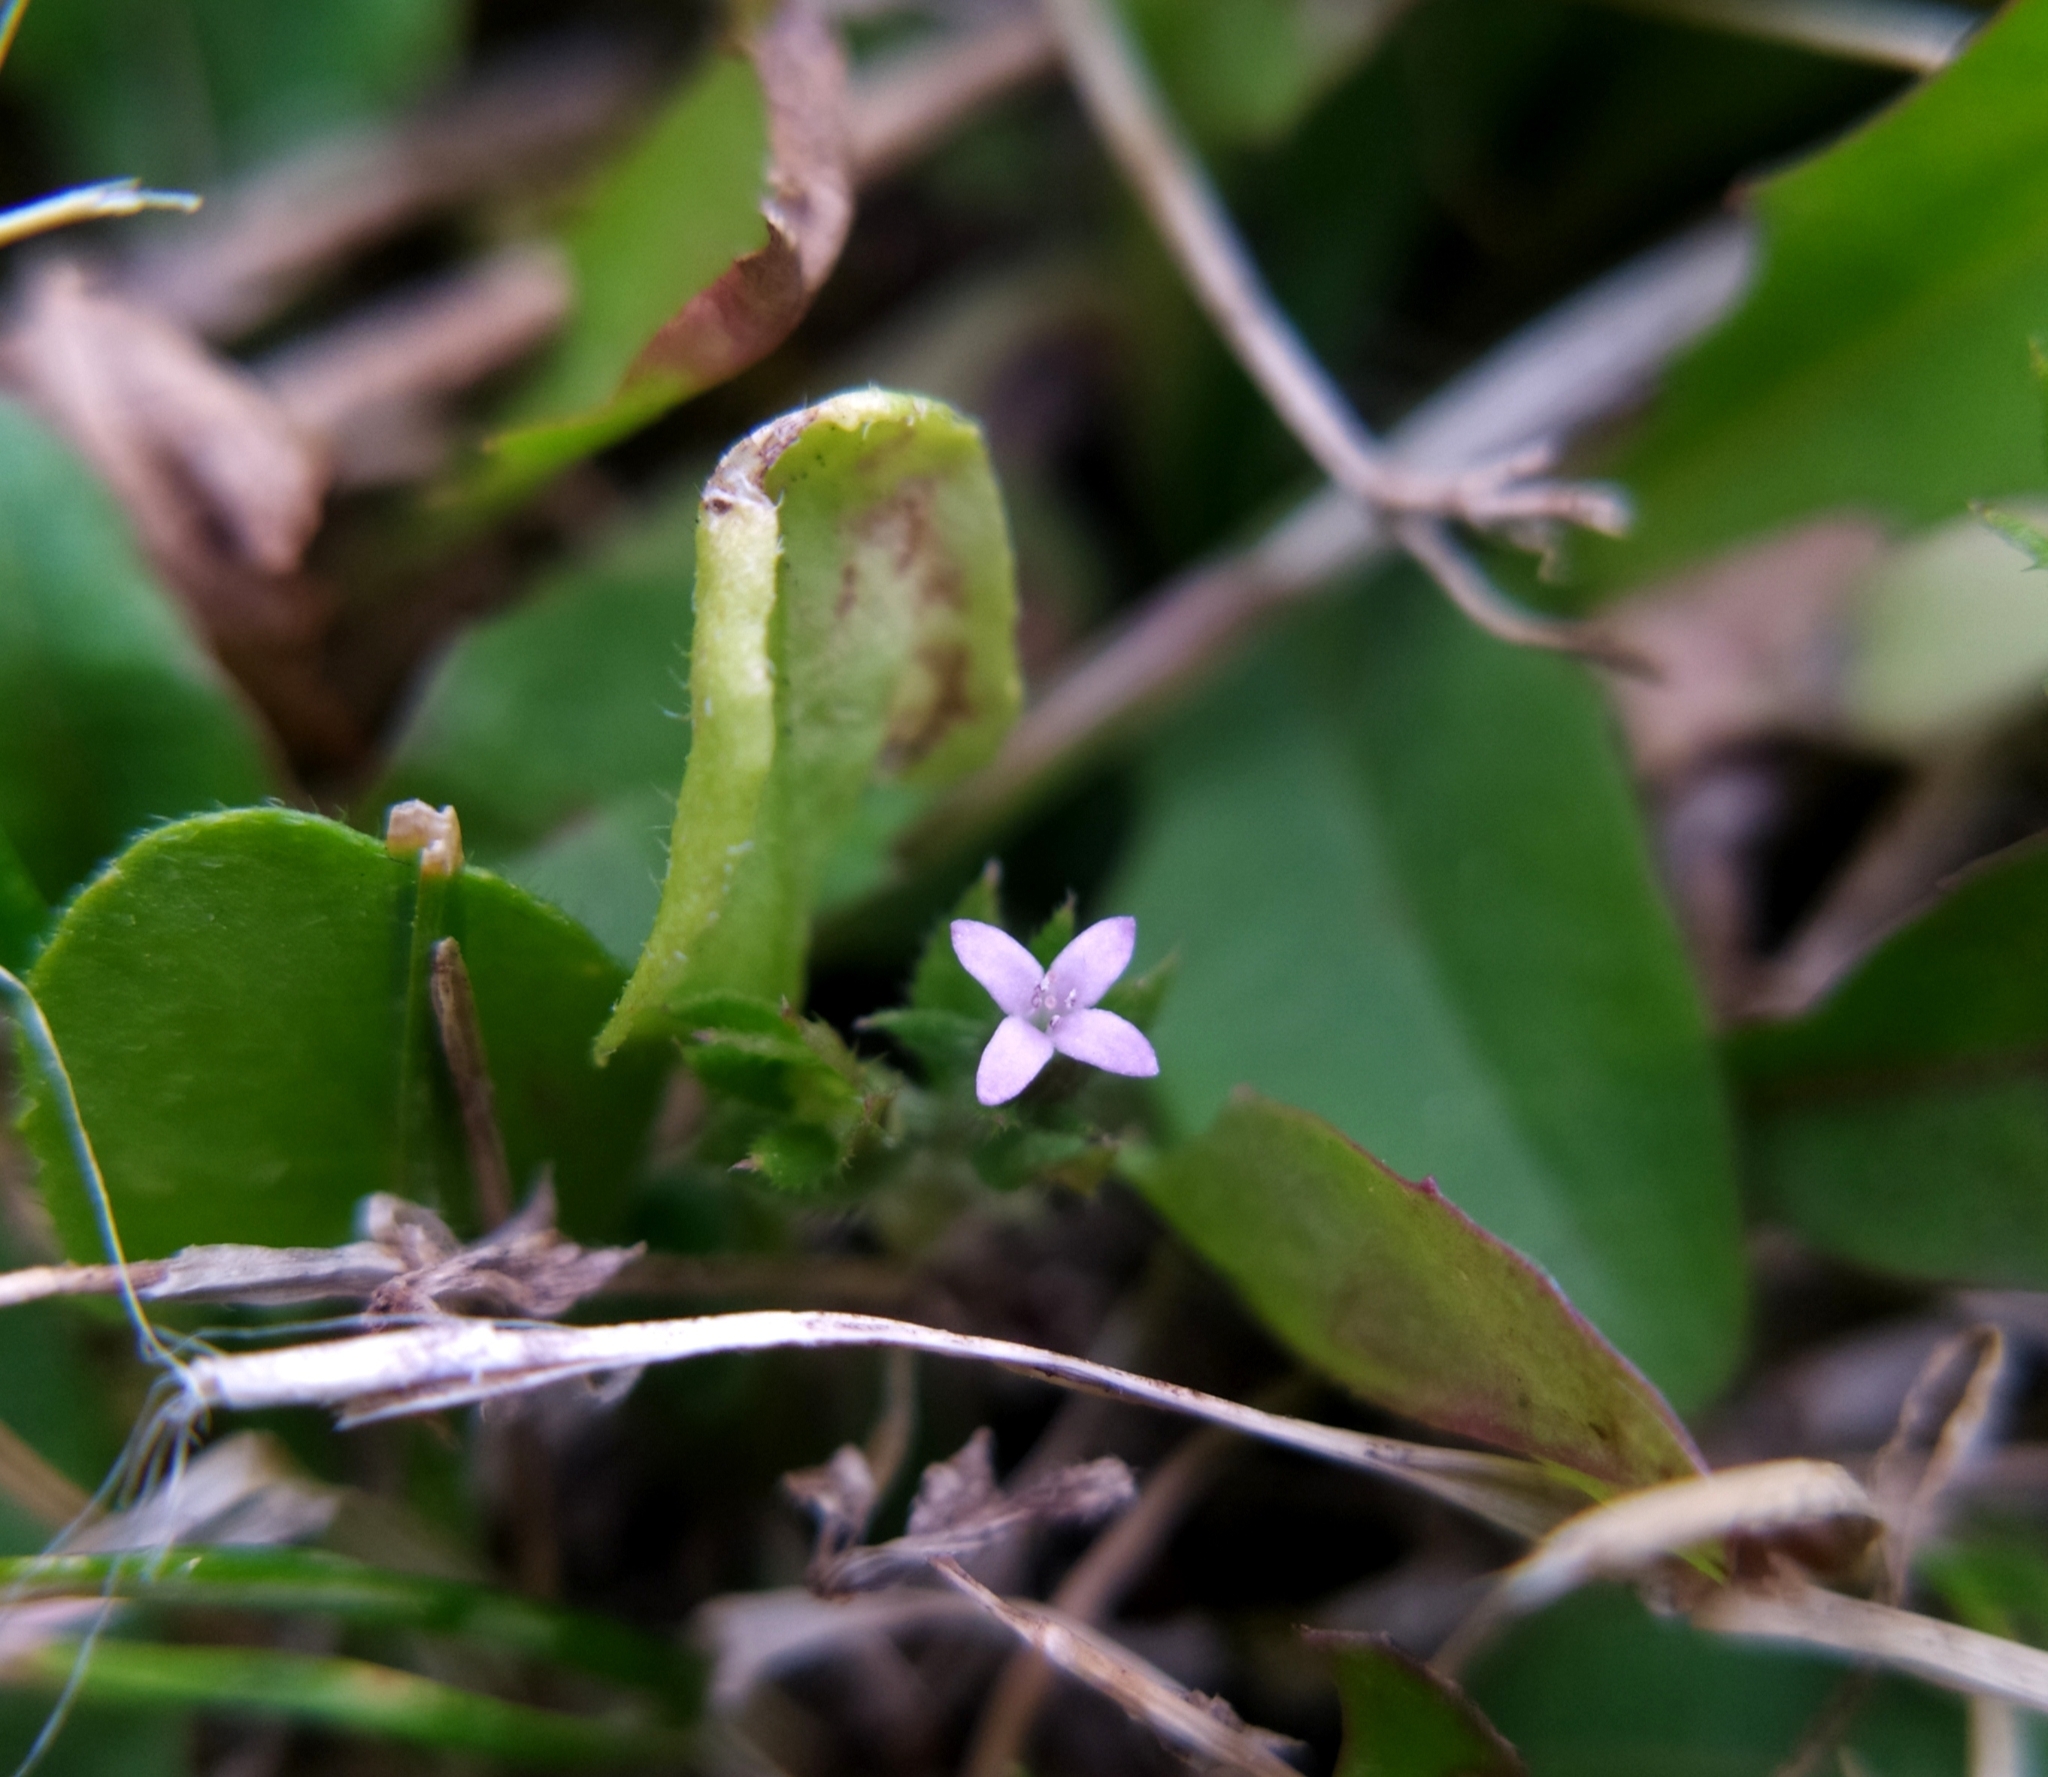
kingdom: Plantae
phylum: Tracheophyta
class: Magnoliopsida
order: Gentianales
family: Rubiaceae
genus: Sherardia
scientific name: Sherardia arvensis
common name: Field madder
